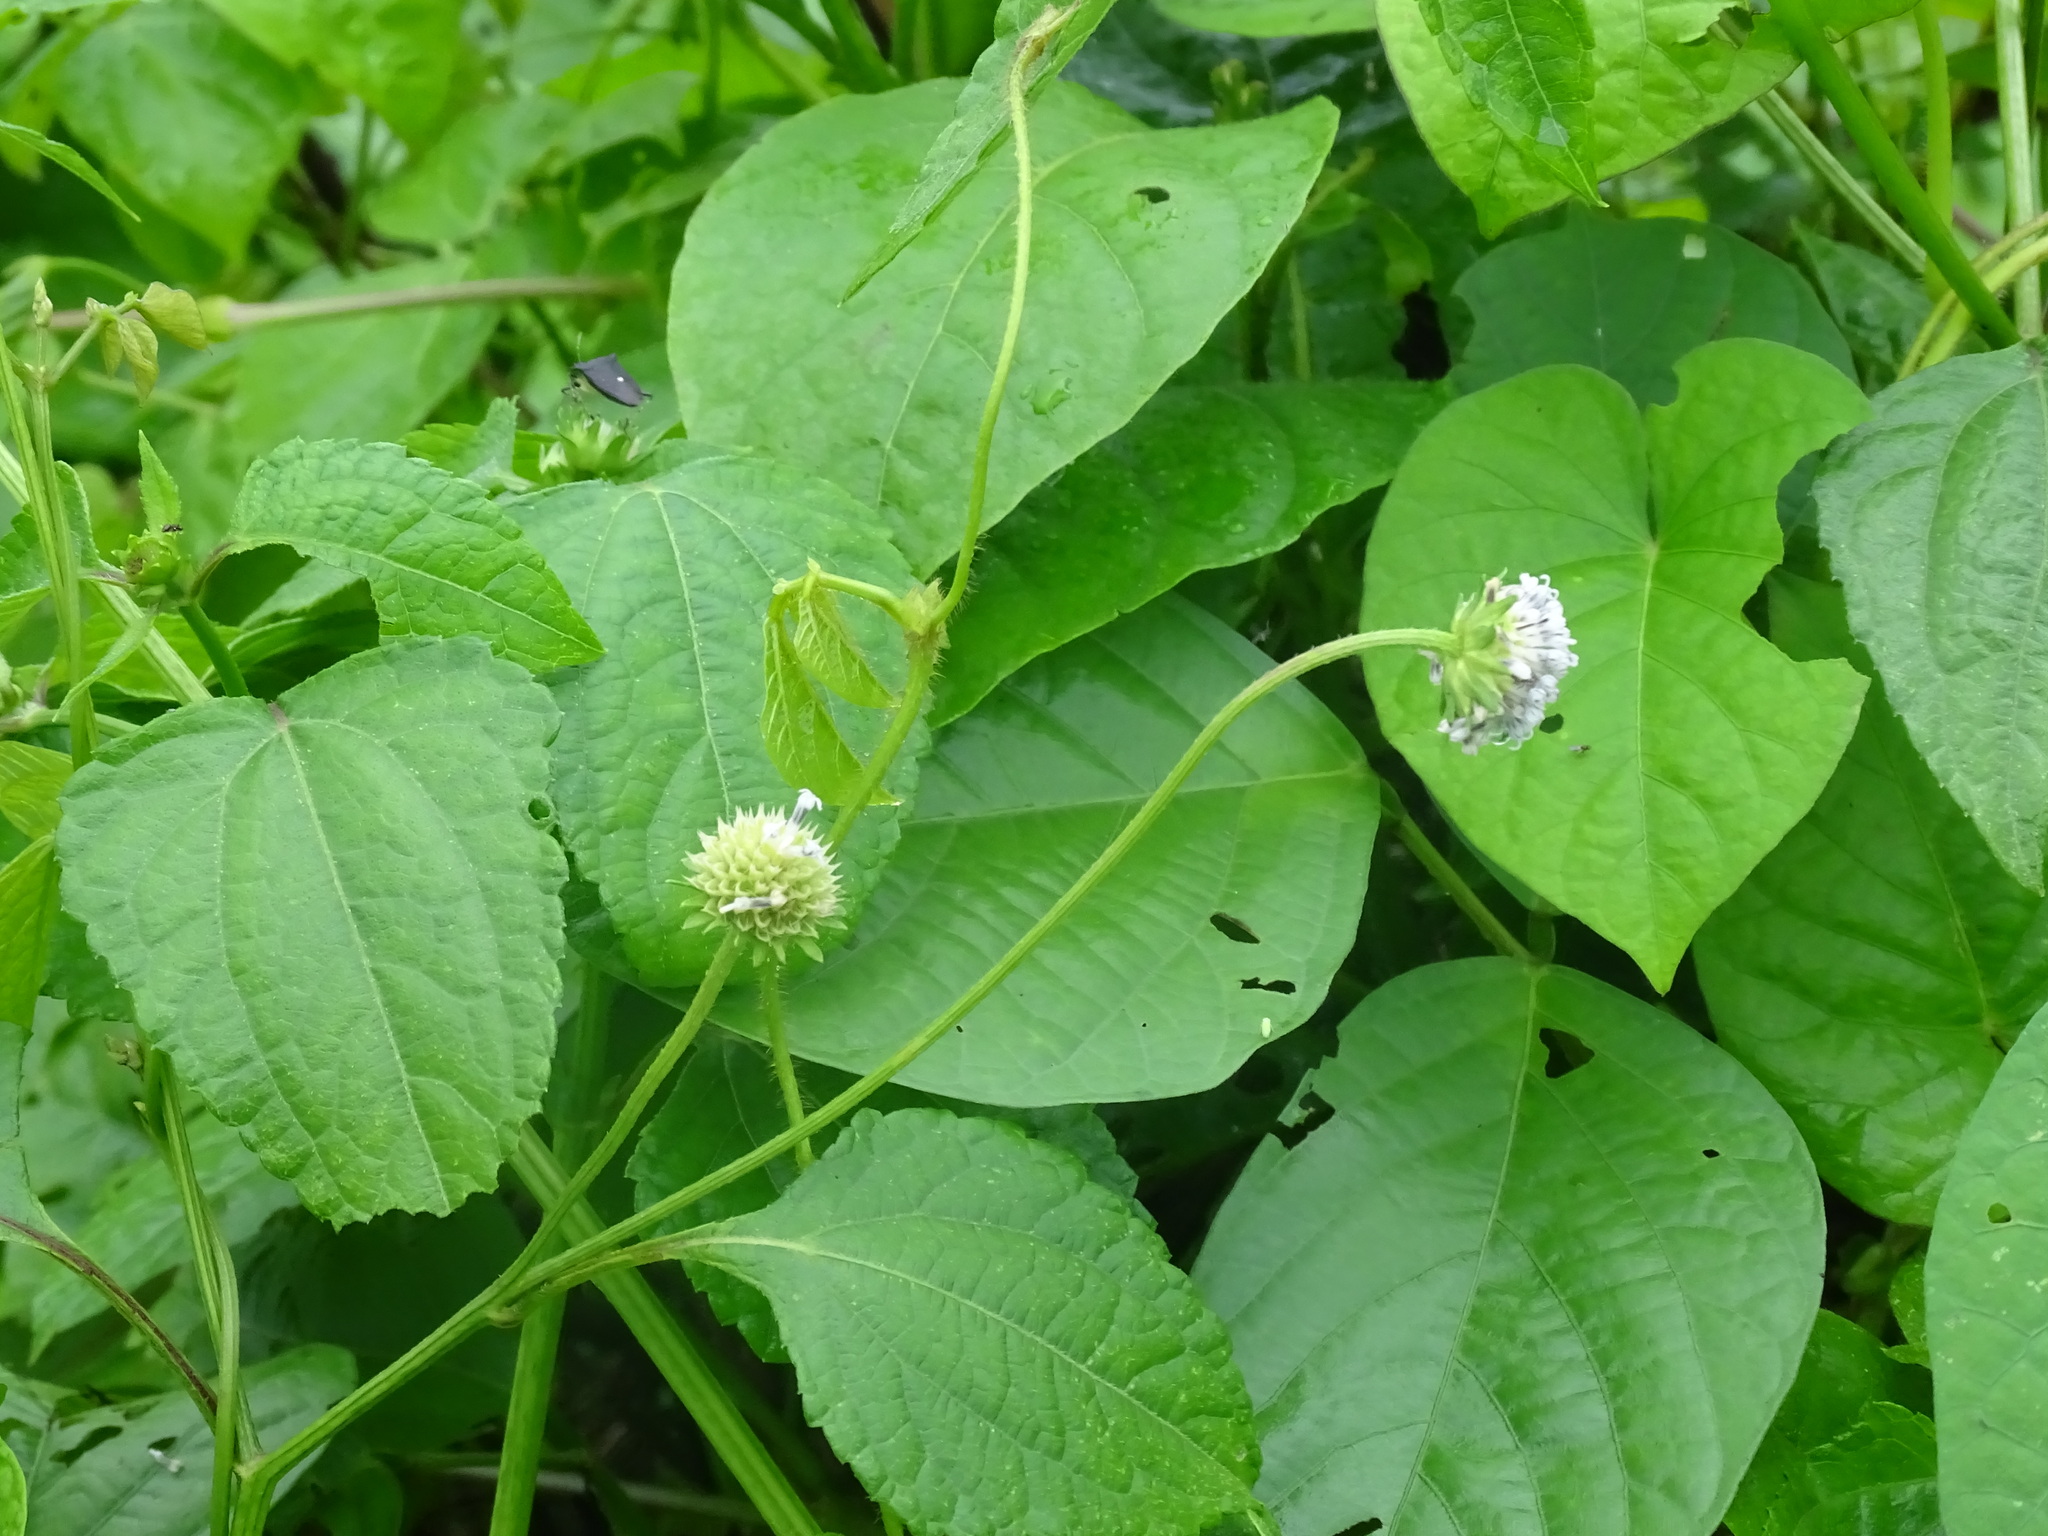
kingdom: Plantae
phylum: Tracheophyta
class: Magnoliopsida
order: Asterales
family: Asteraceae
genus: Melanthera
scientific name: Melanthera nivea
